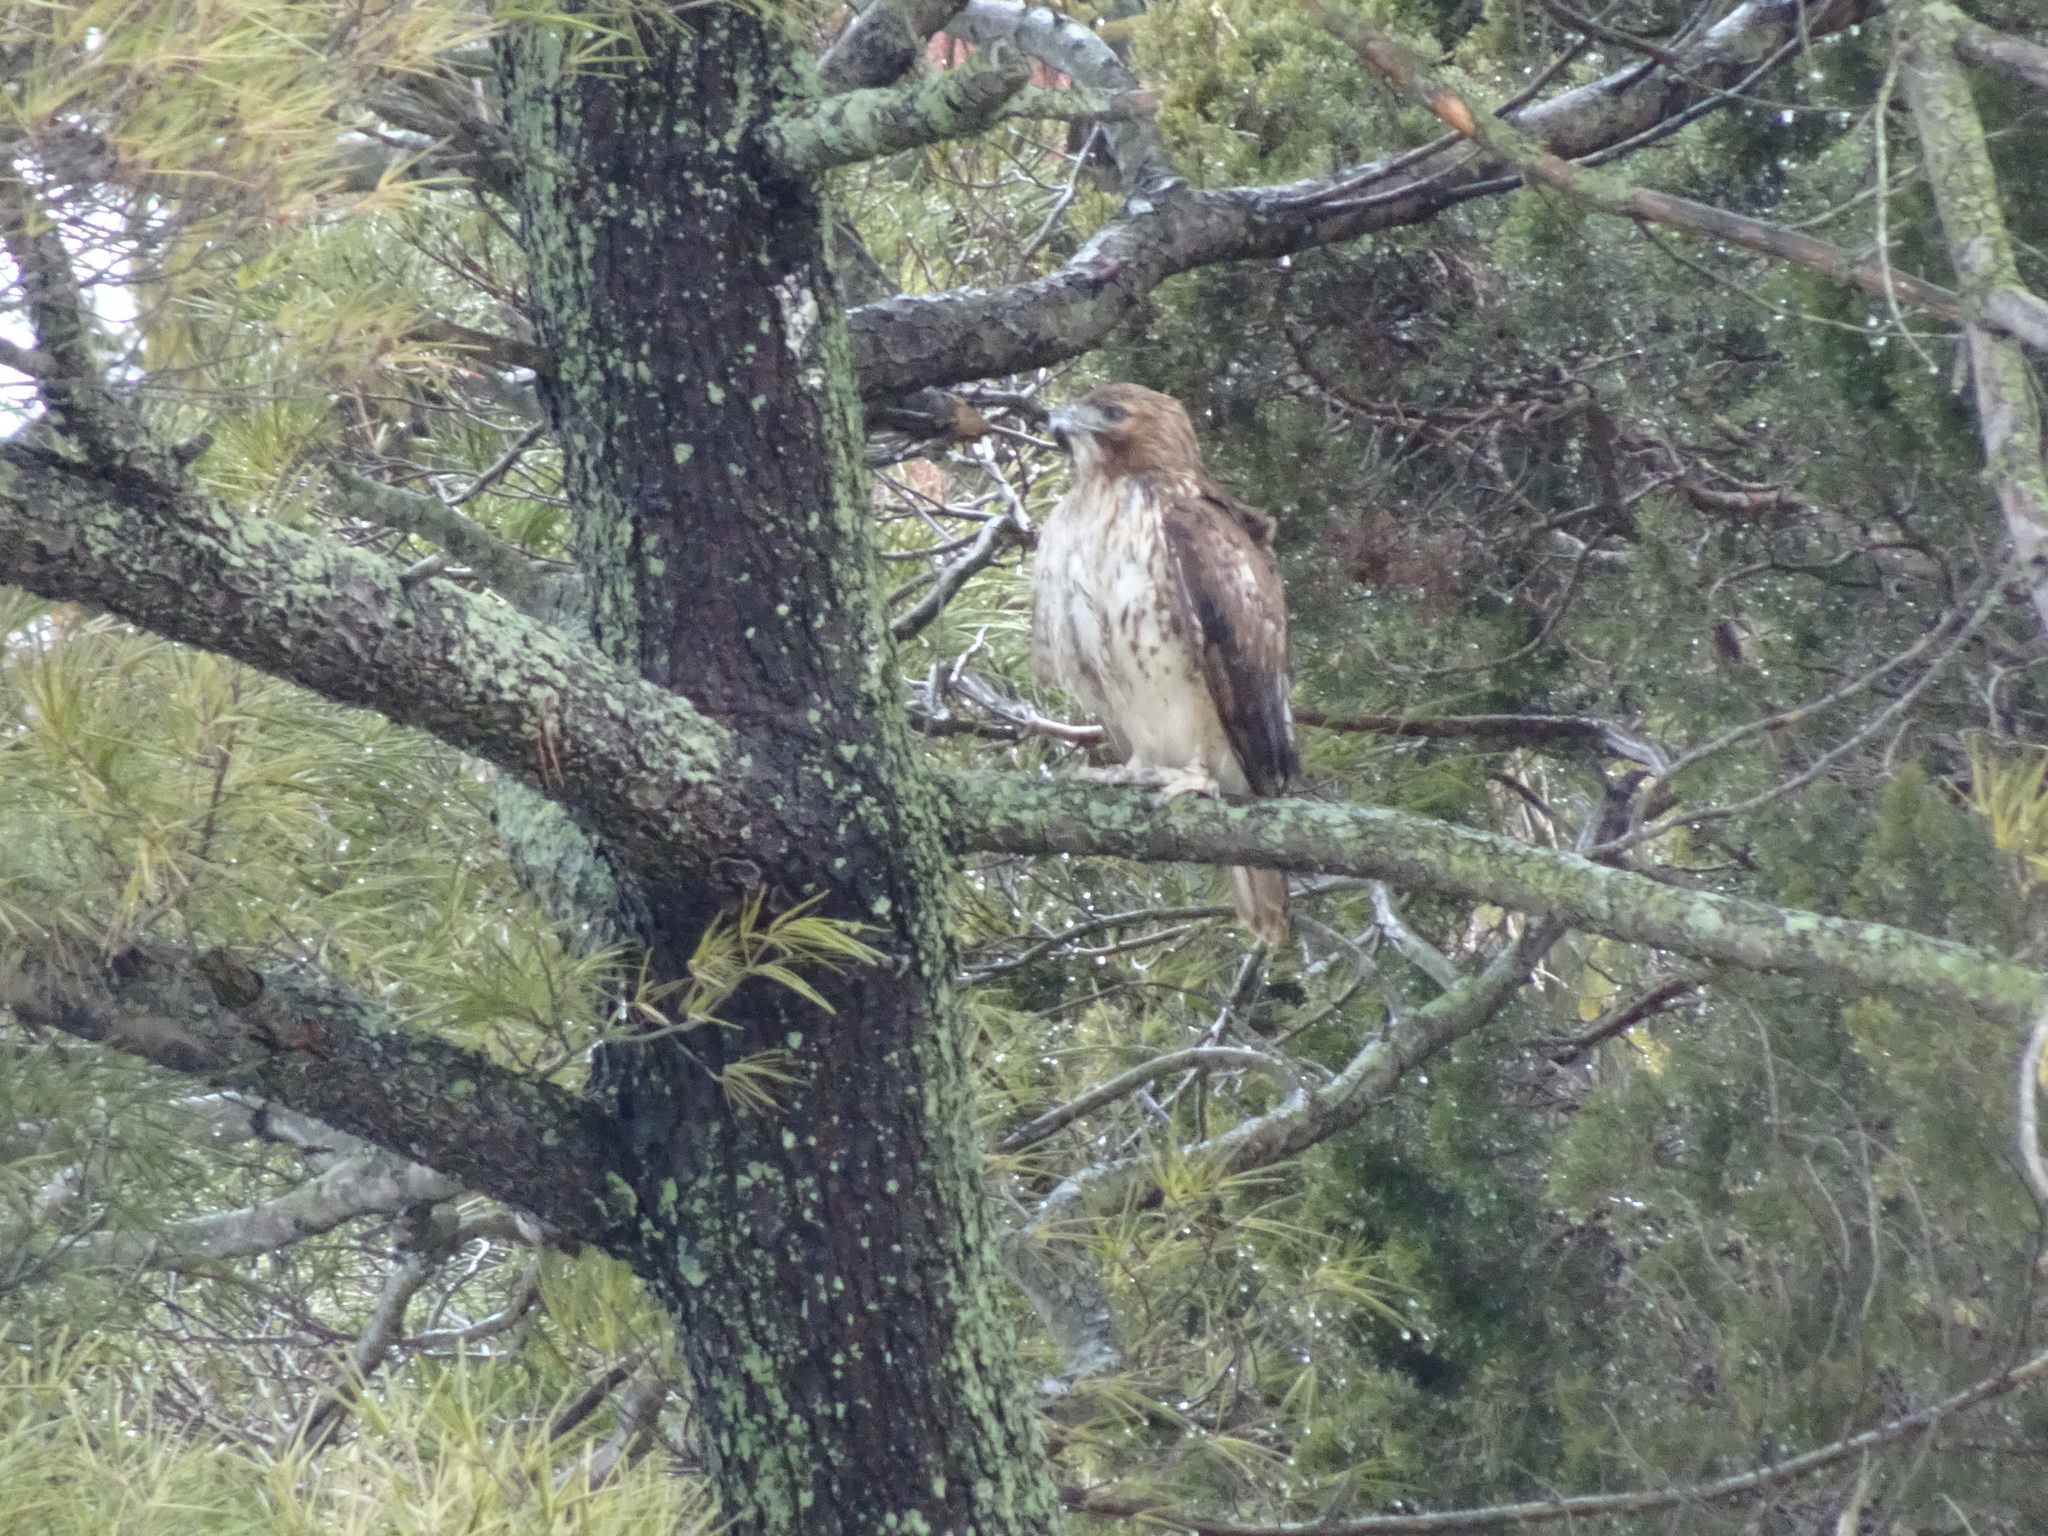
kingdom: Animalia
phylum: Chordata
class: Aves
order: Accipitriformes
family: Accipitridae
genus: Buteo
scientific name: Buteo jamaicensis
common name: Red-tailed hawk
